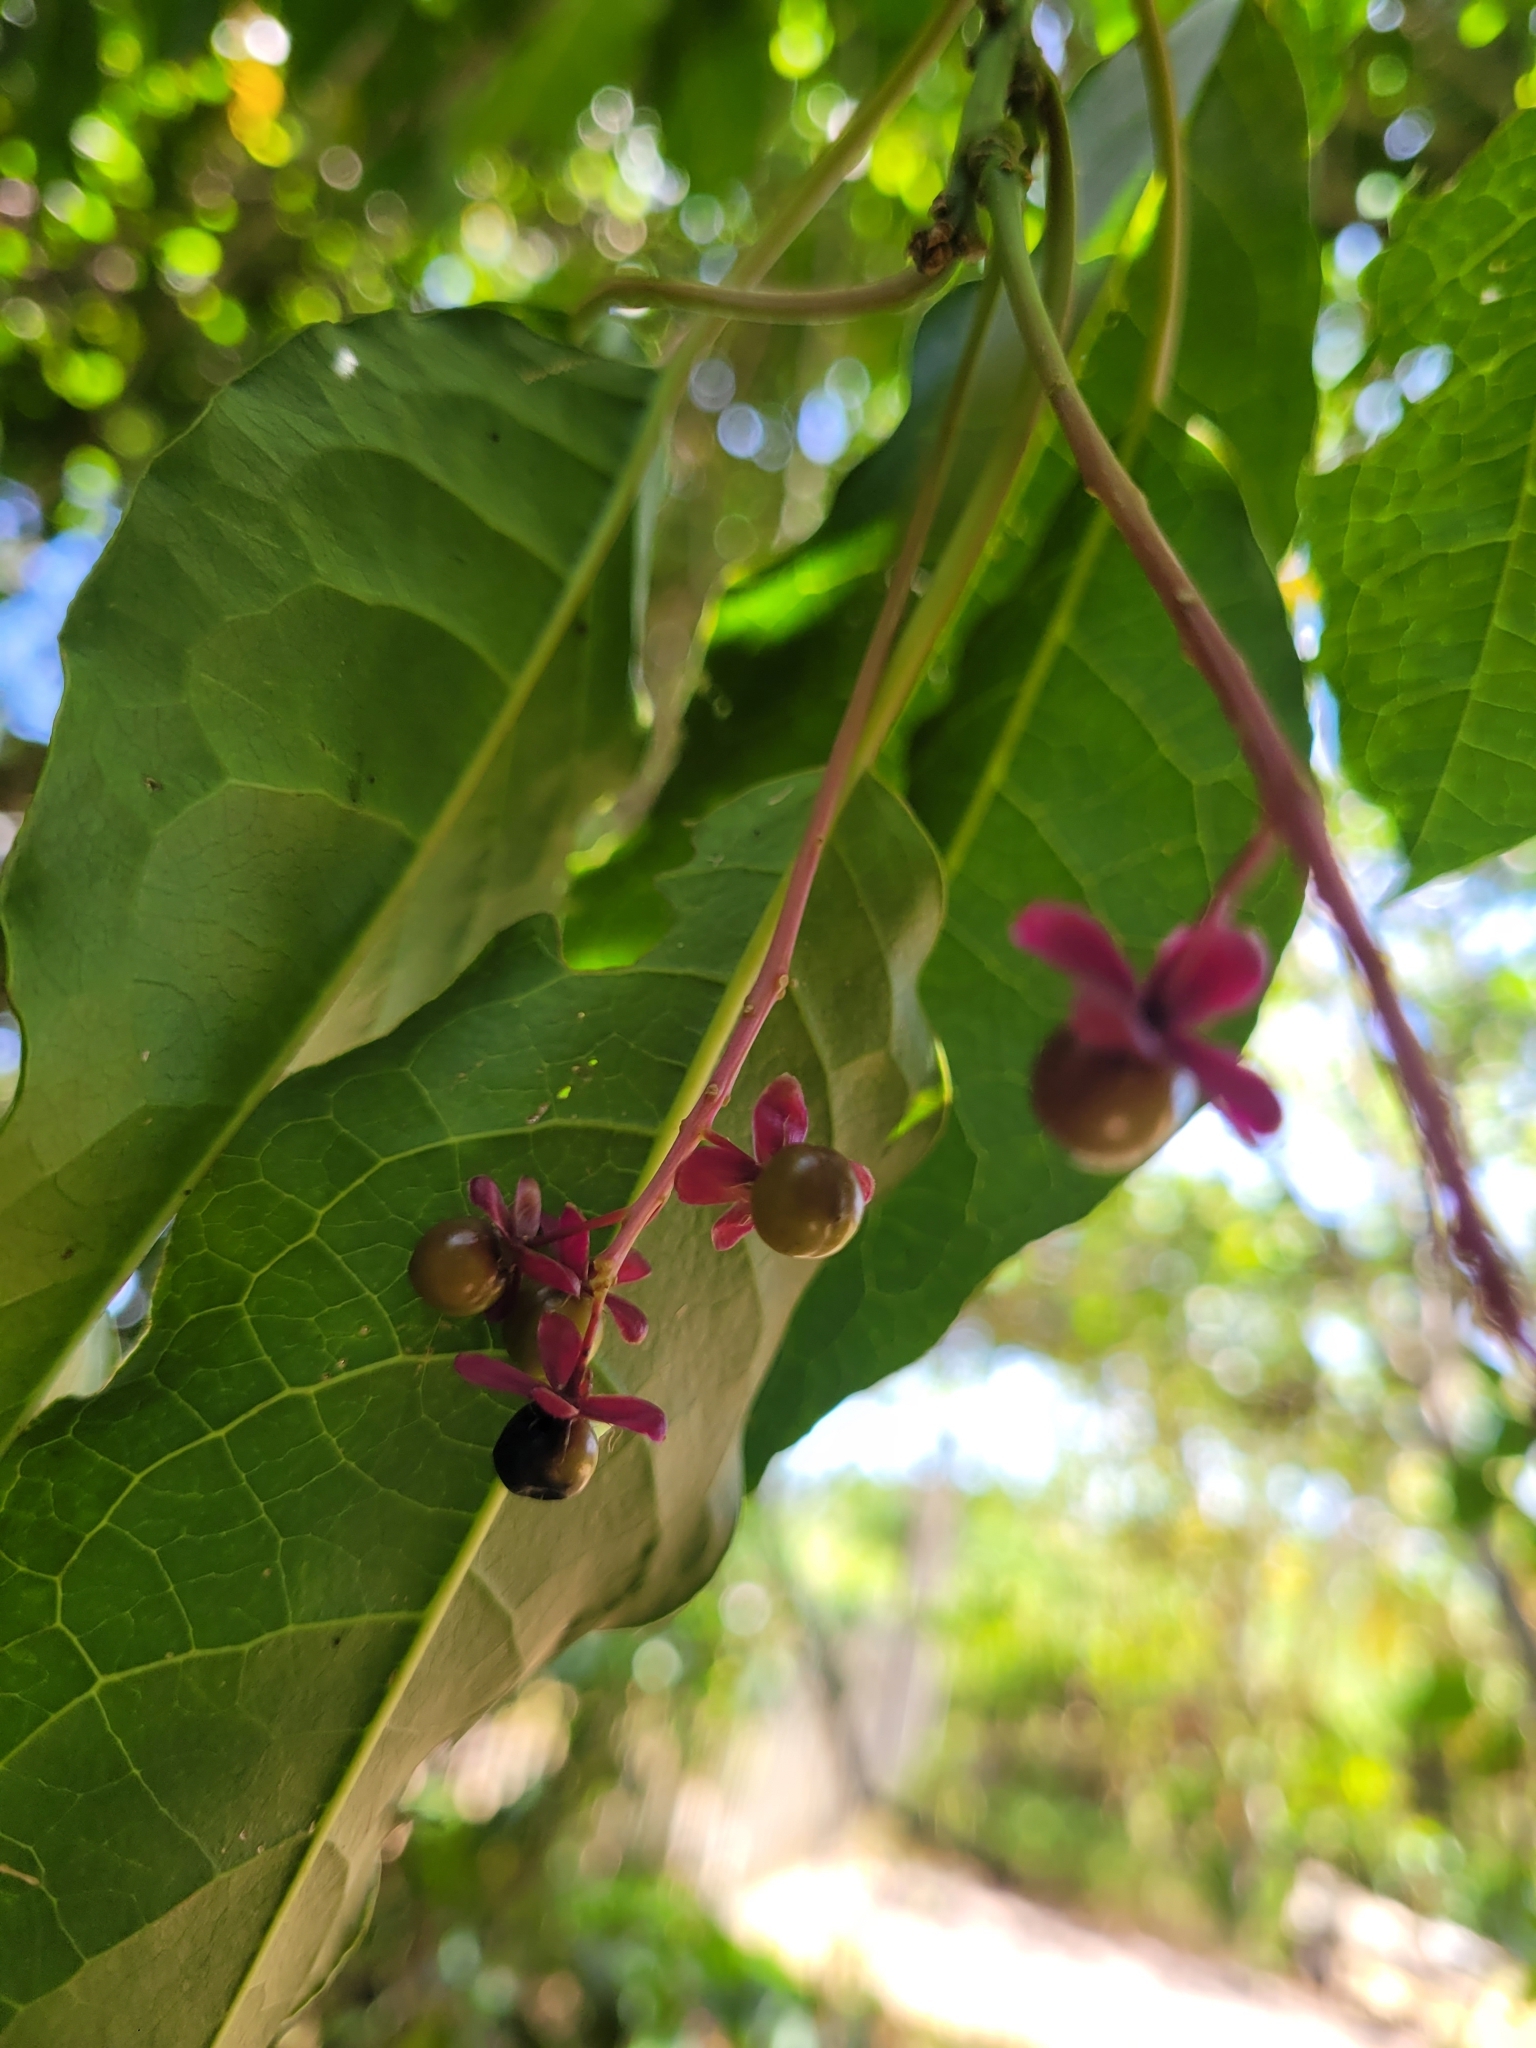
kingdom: Plantae
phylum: Tracheophyta
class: Magnoliopsida
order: Caryophyllales
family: Phytolaccaceae
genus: Trichostigma
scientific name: Trichostigma octandrum
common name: Basket wiss
